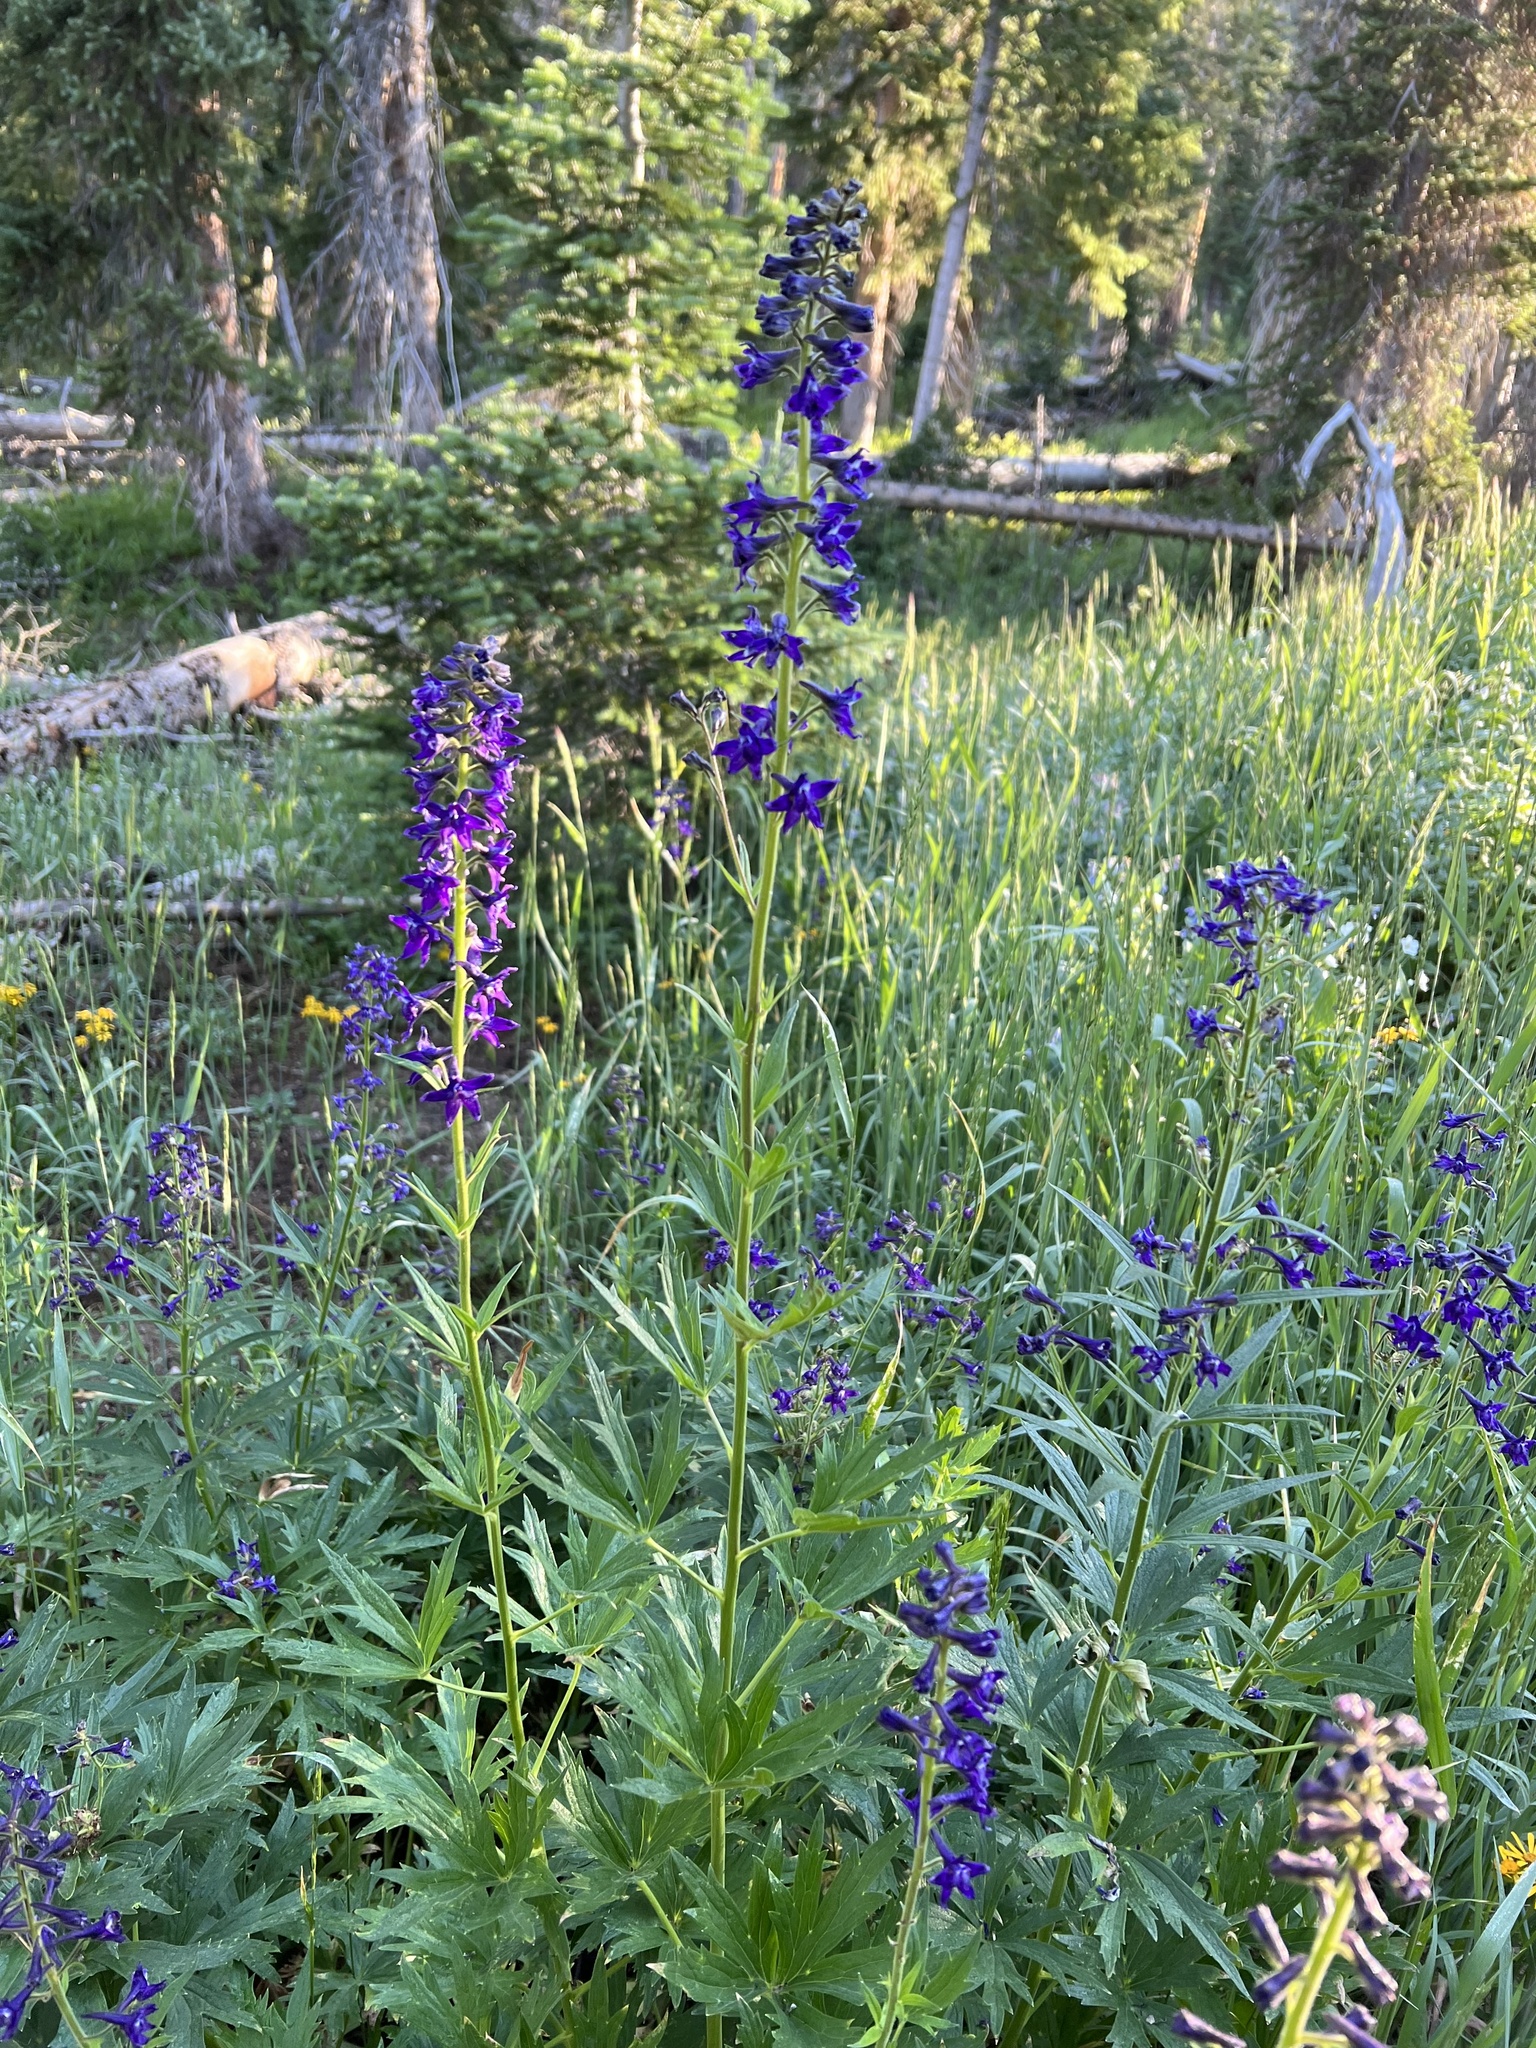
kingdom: Plantae
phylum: Tracheophyta
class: Magnoliopsida
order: Ranunculales
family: Ranunculaceae
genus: Delphinium
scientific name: Delphinium barbeyi
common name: Subalpine larkspur
